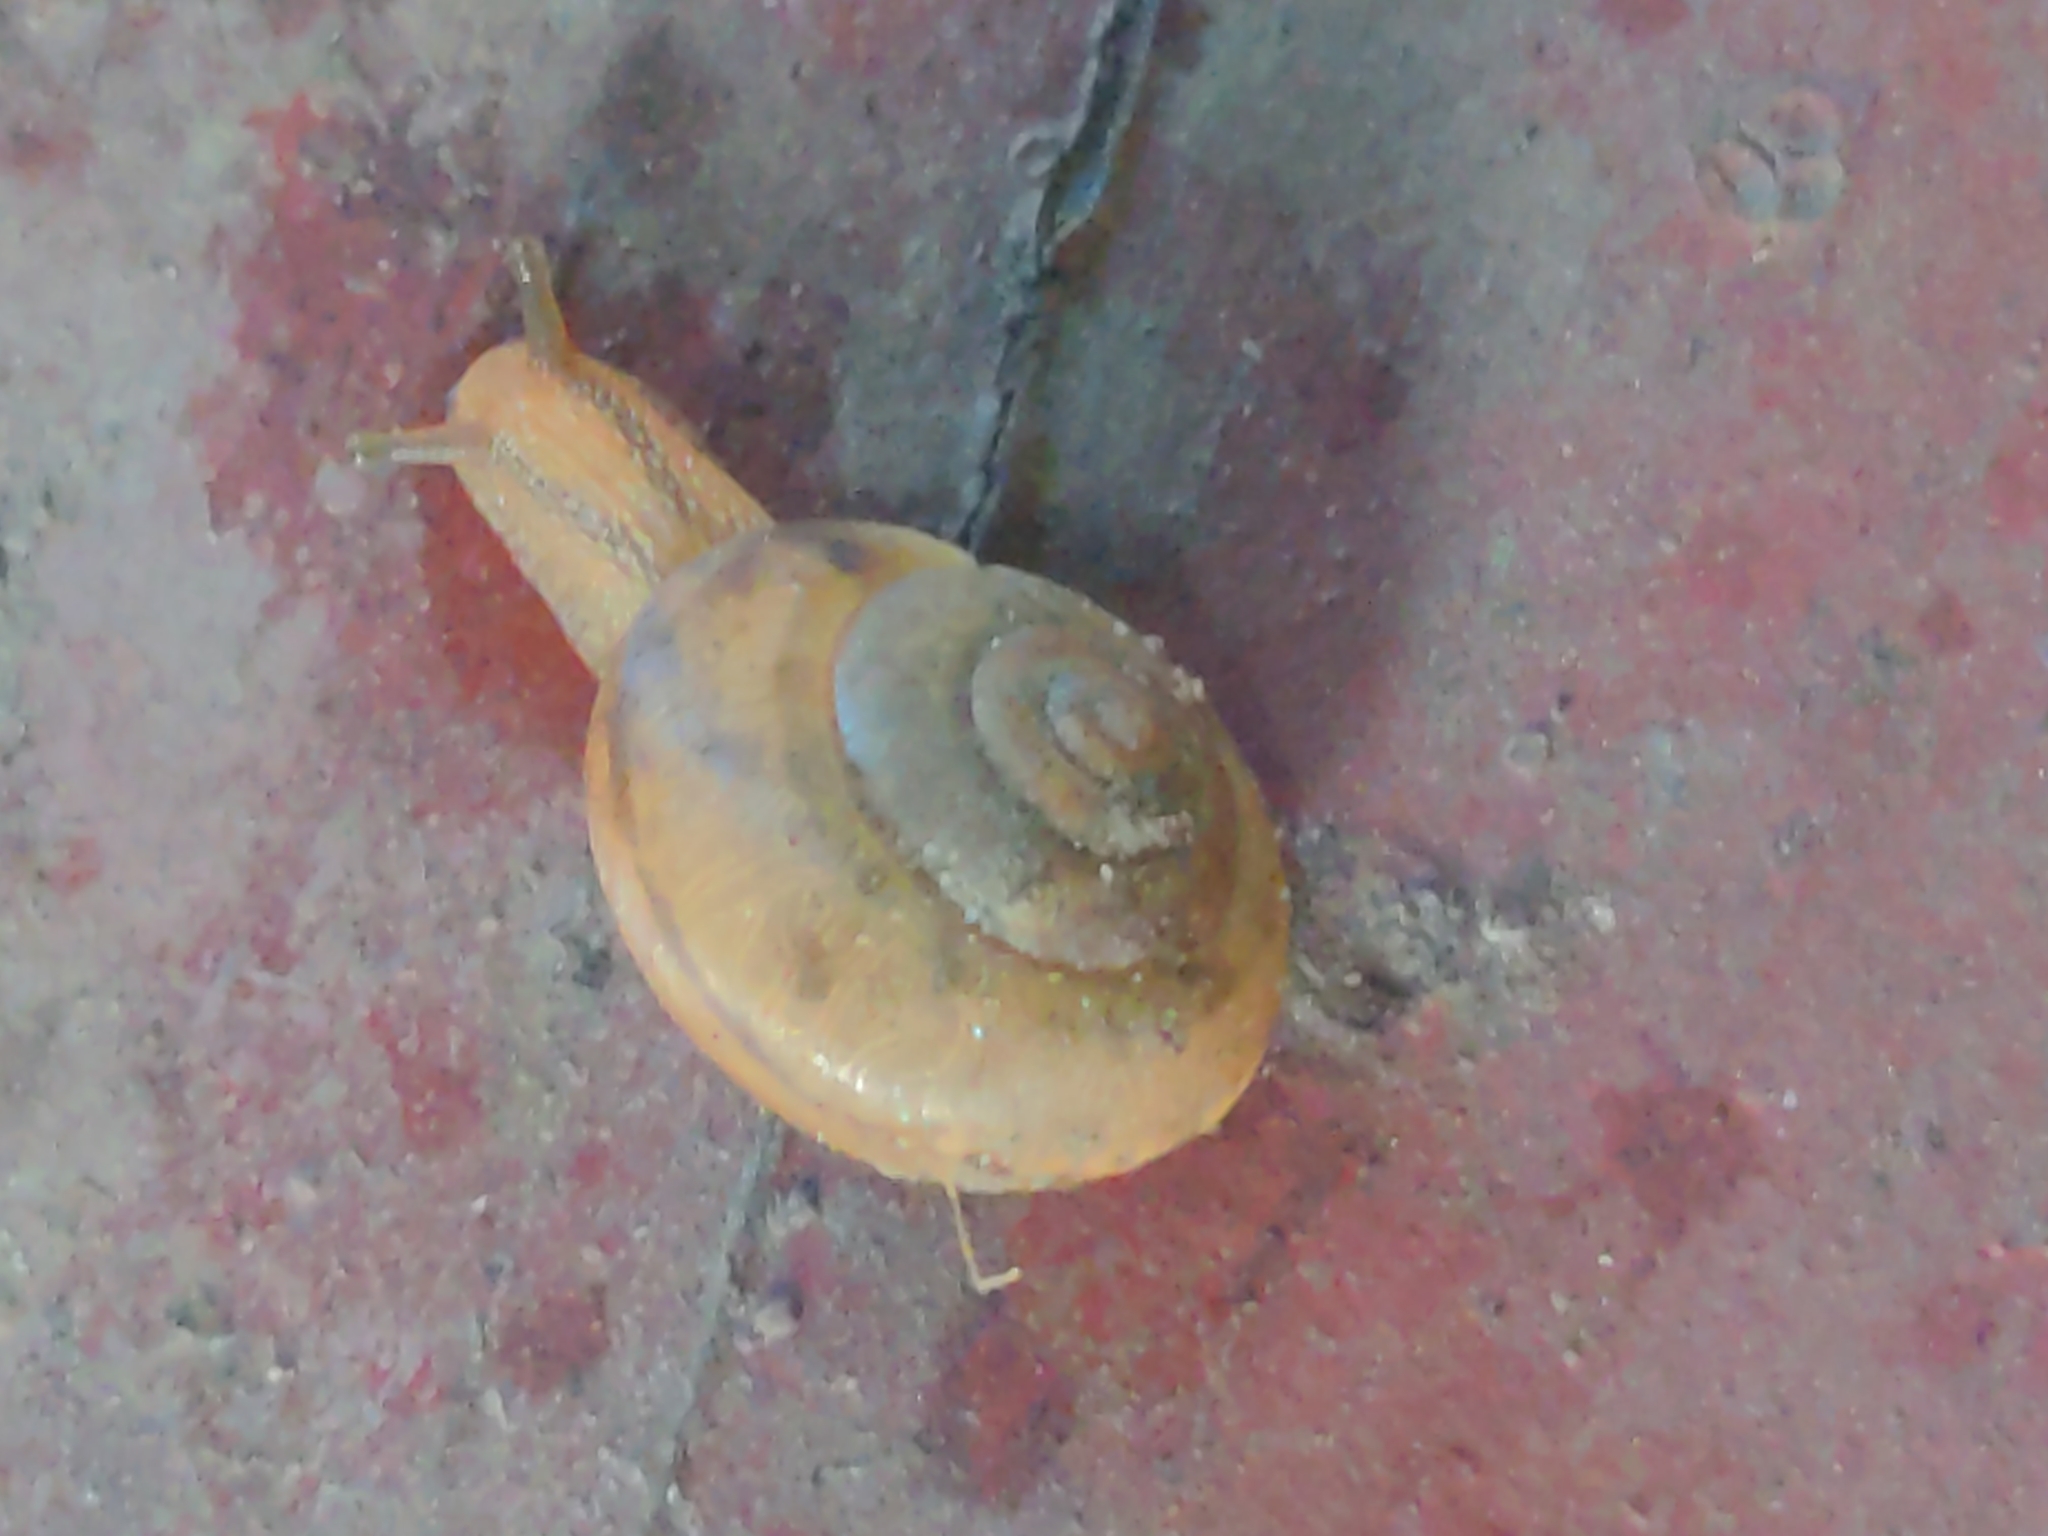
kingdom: Animalia
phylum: Mollusca
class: Gastropoda
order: Stylommatophora
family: Camaenidae
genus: Bradybaena
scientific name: Bradybaena similaris
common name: Asian trampsnail
